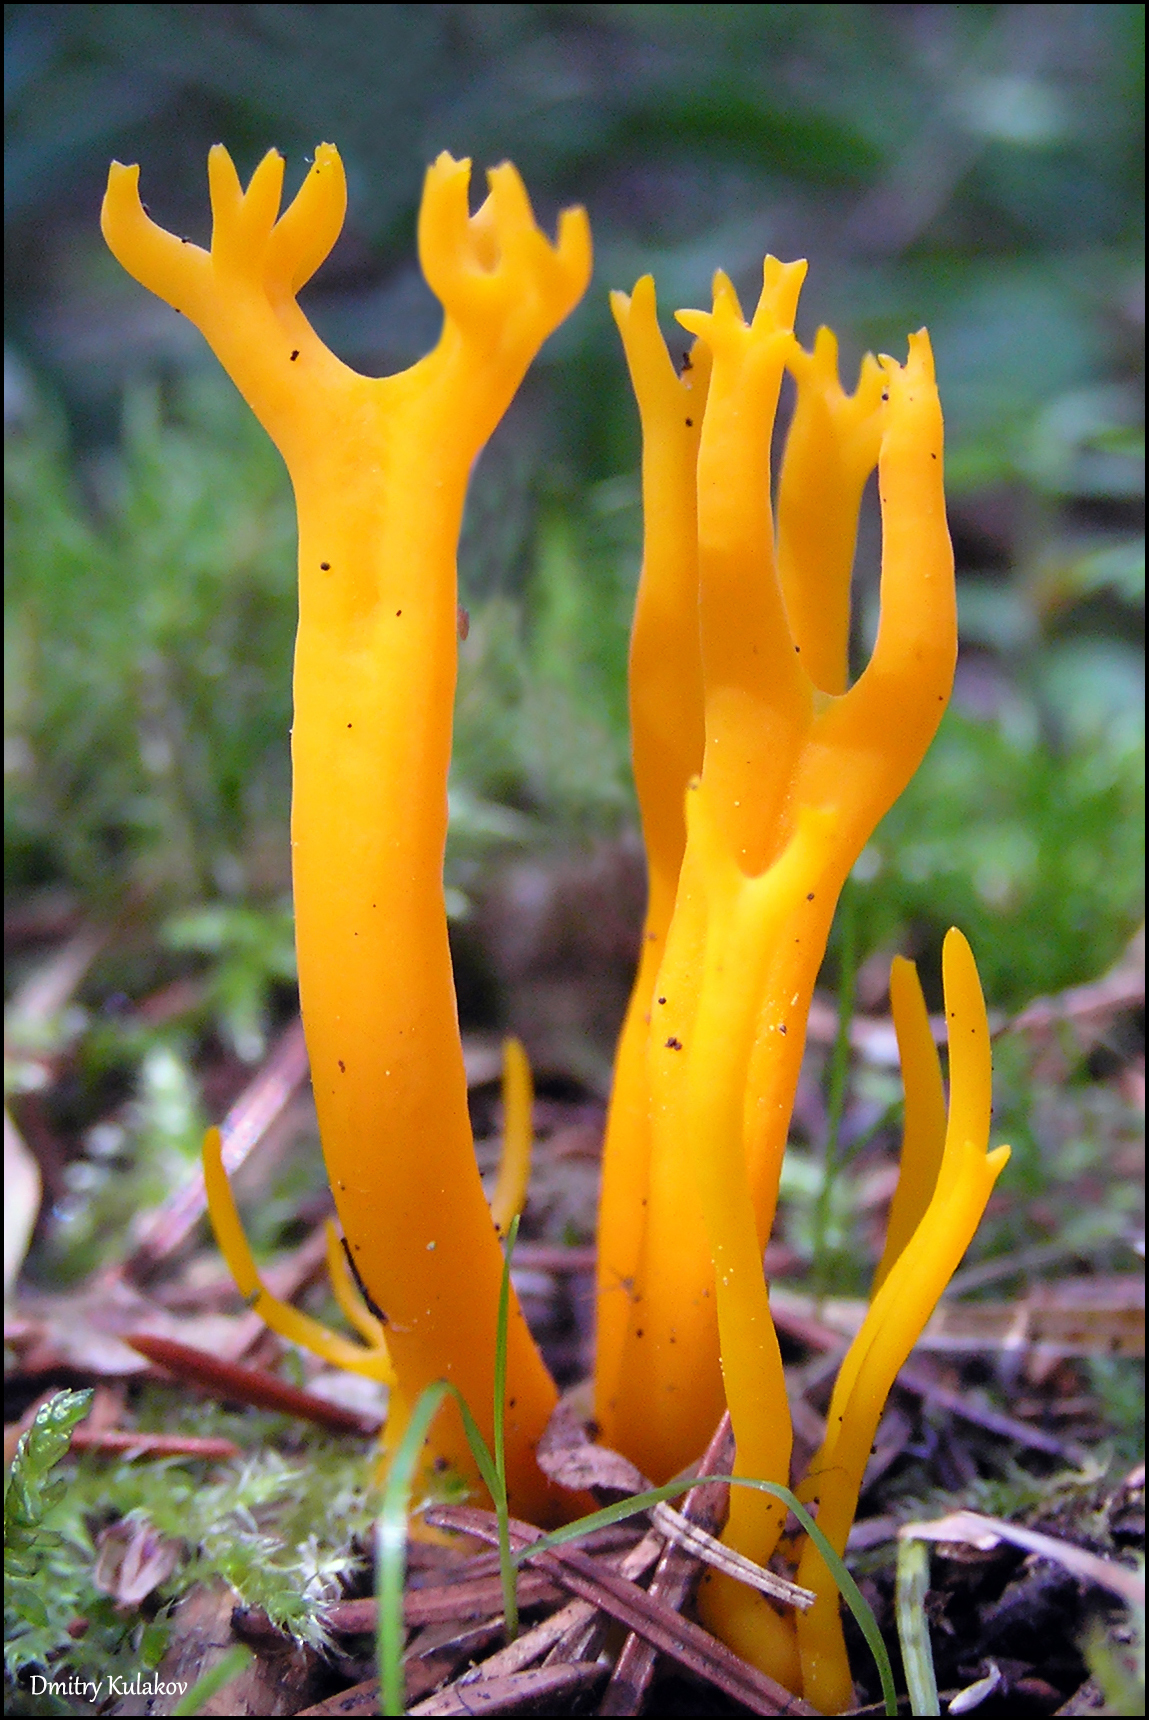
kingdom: Fungi
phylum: Basidiomycota
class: Dacrymycetes
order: Dacrymycetales
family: Dacrymycetaceae
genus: Calocera
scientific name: Calocera viscosa
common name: Yellow stagshorn
